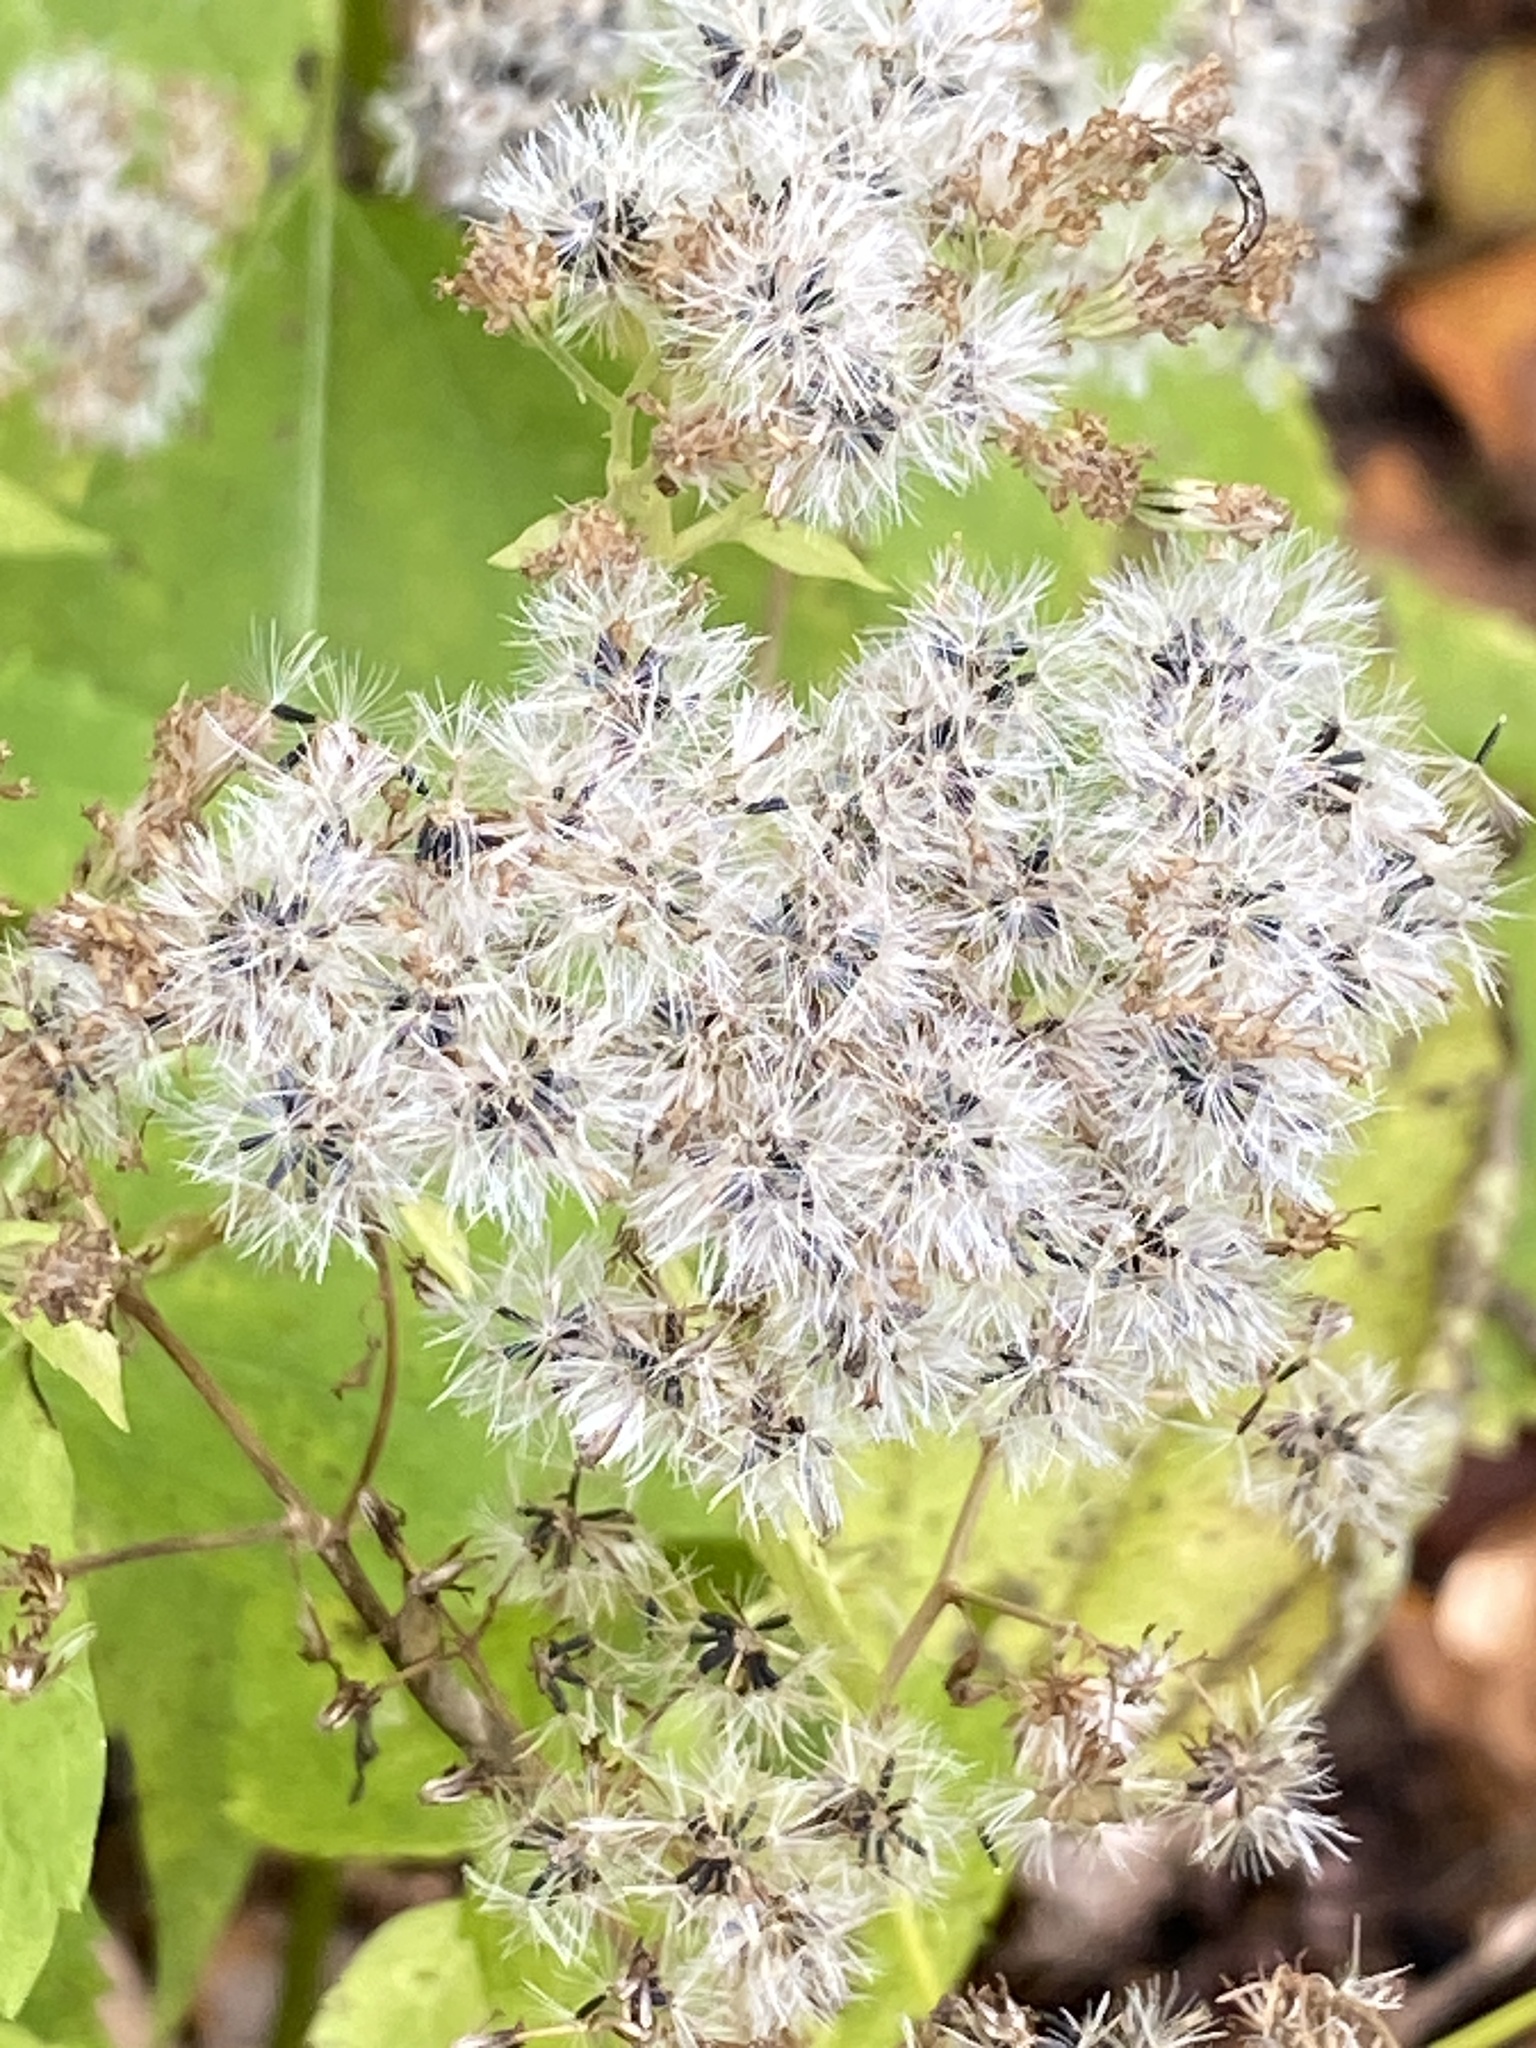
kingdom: Plantae
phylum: Tracheophyta
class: Magnoliopsida
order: Asterales
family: Asteraceae
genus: Ageratina
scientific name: Ageratina altissima
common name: White snakeroot
